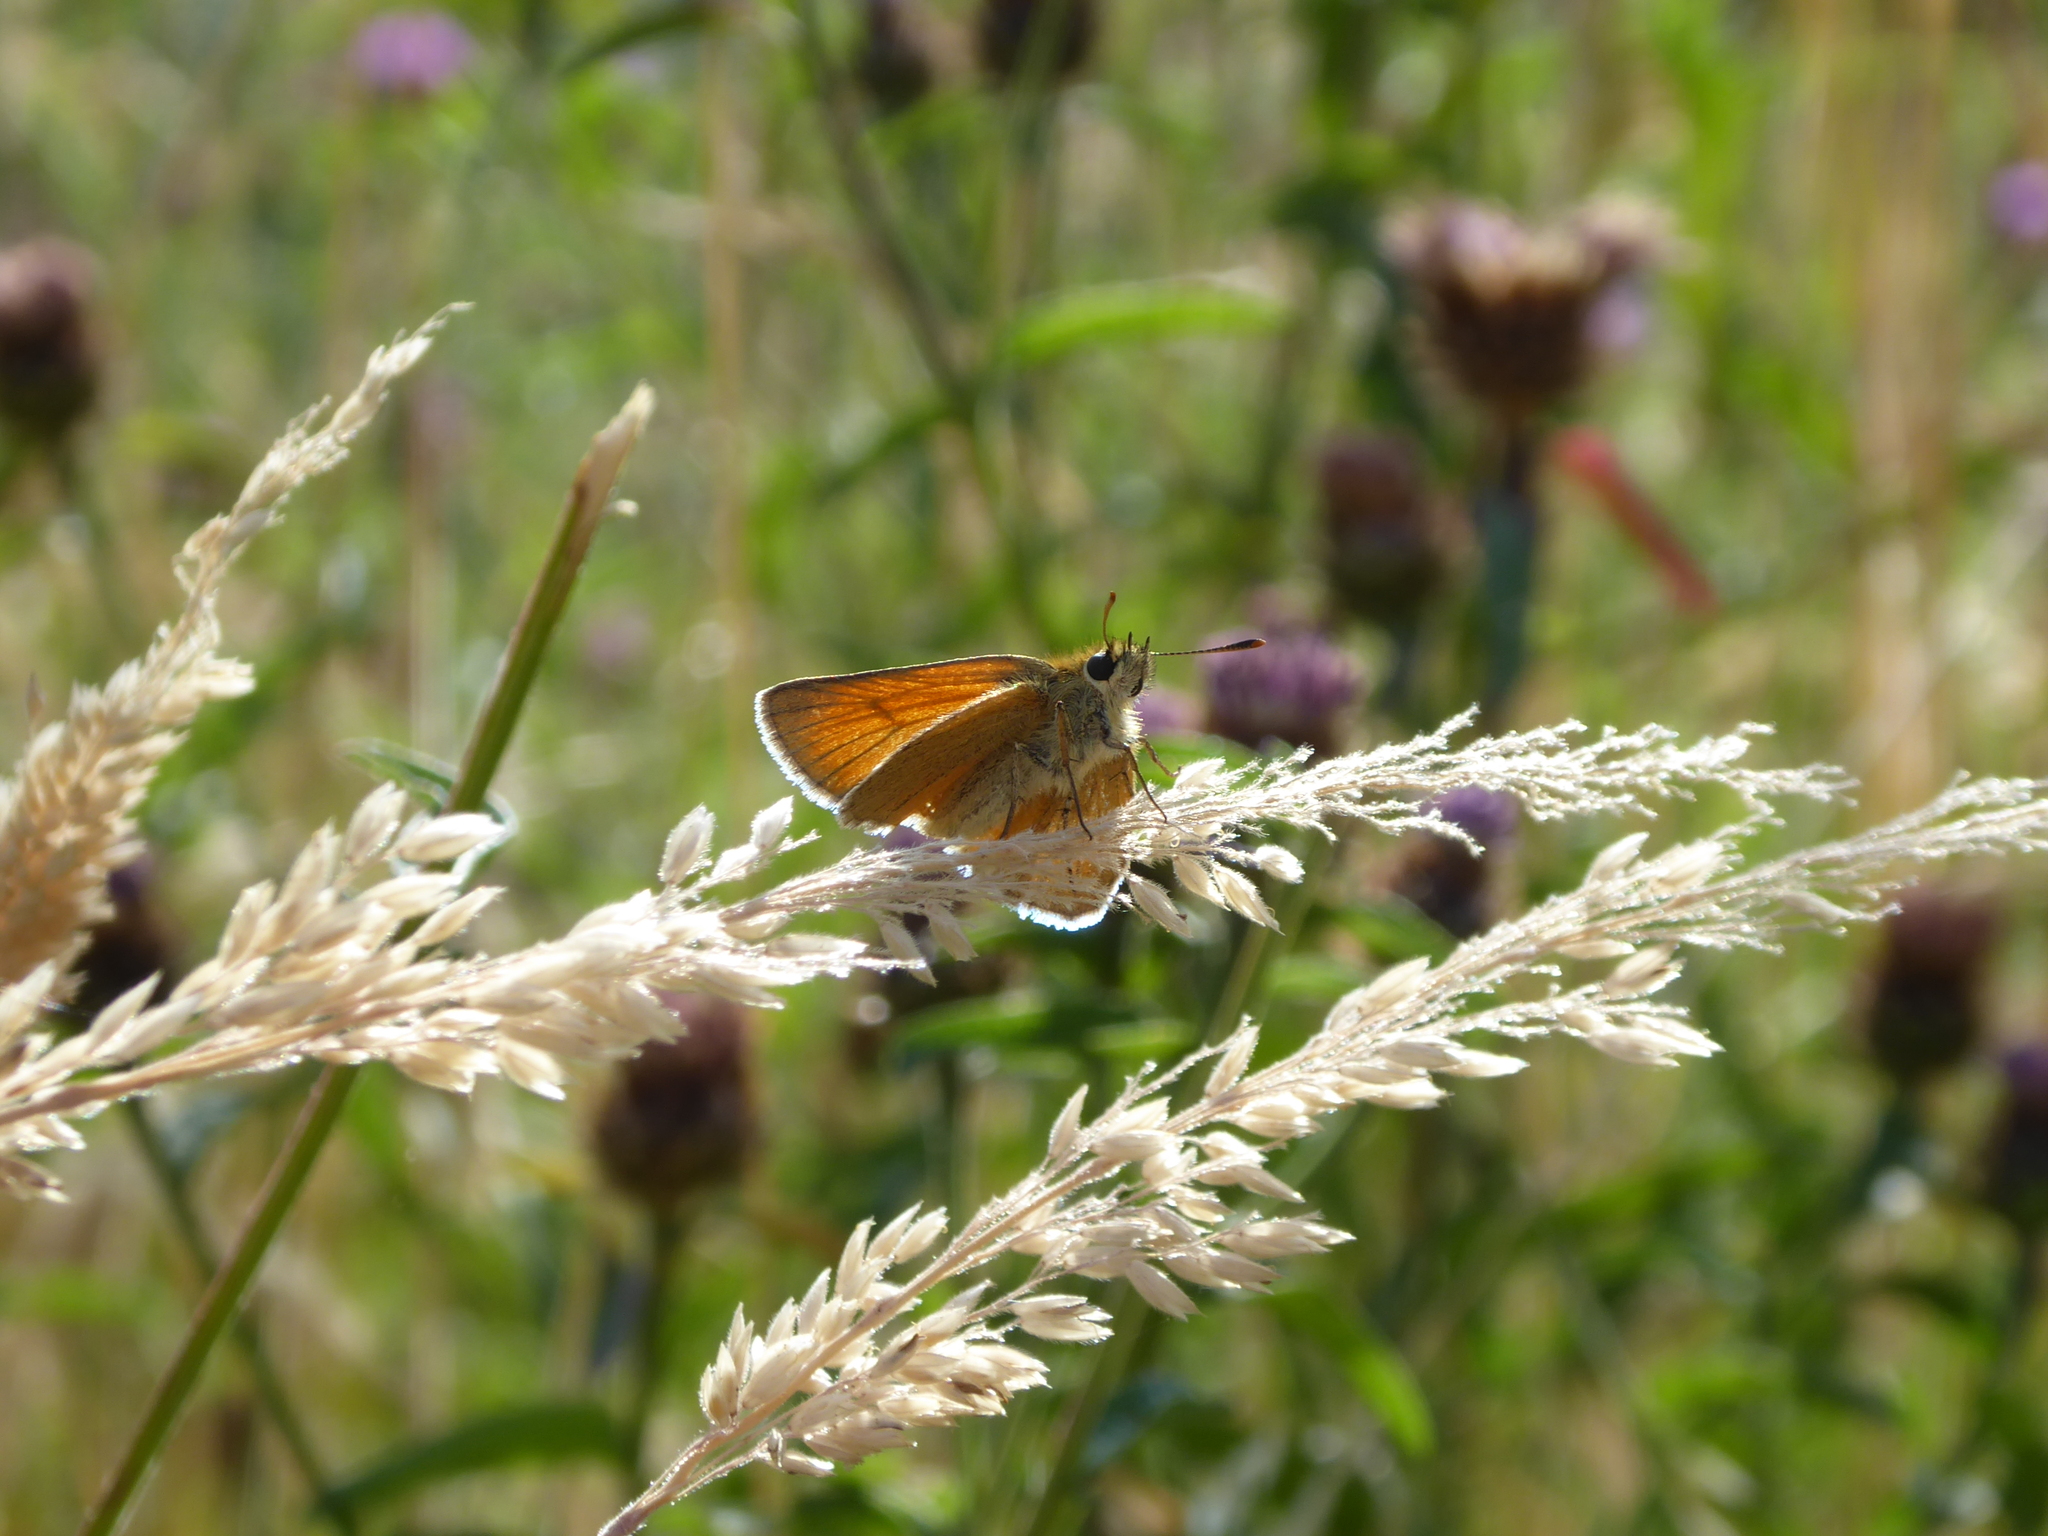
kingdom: Animalia
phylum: Arthropoda
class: Insecta
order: Lepidoptera
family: Hesperiidae
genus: Thymelicus
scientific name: Thymelicus sylvestris
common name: Small skipper
